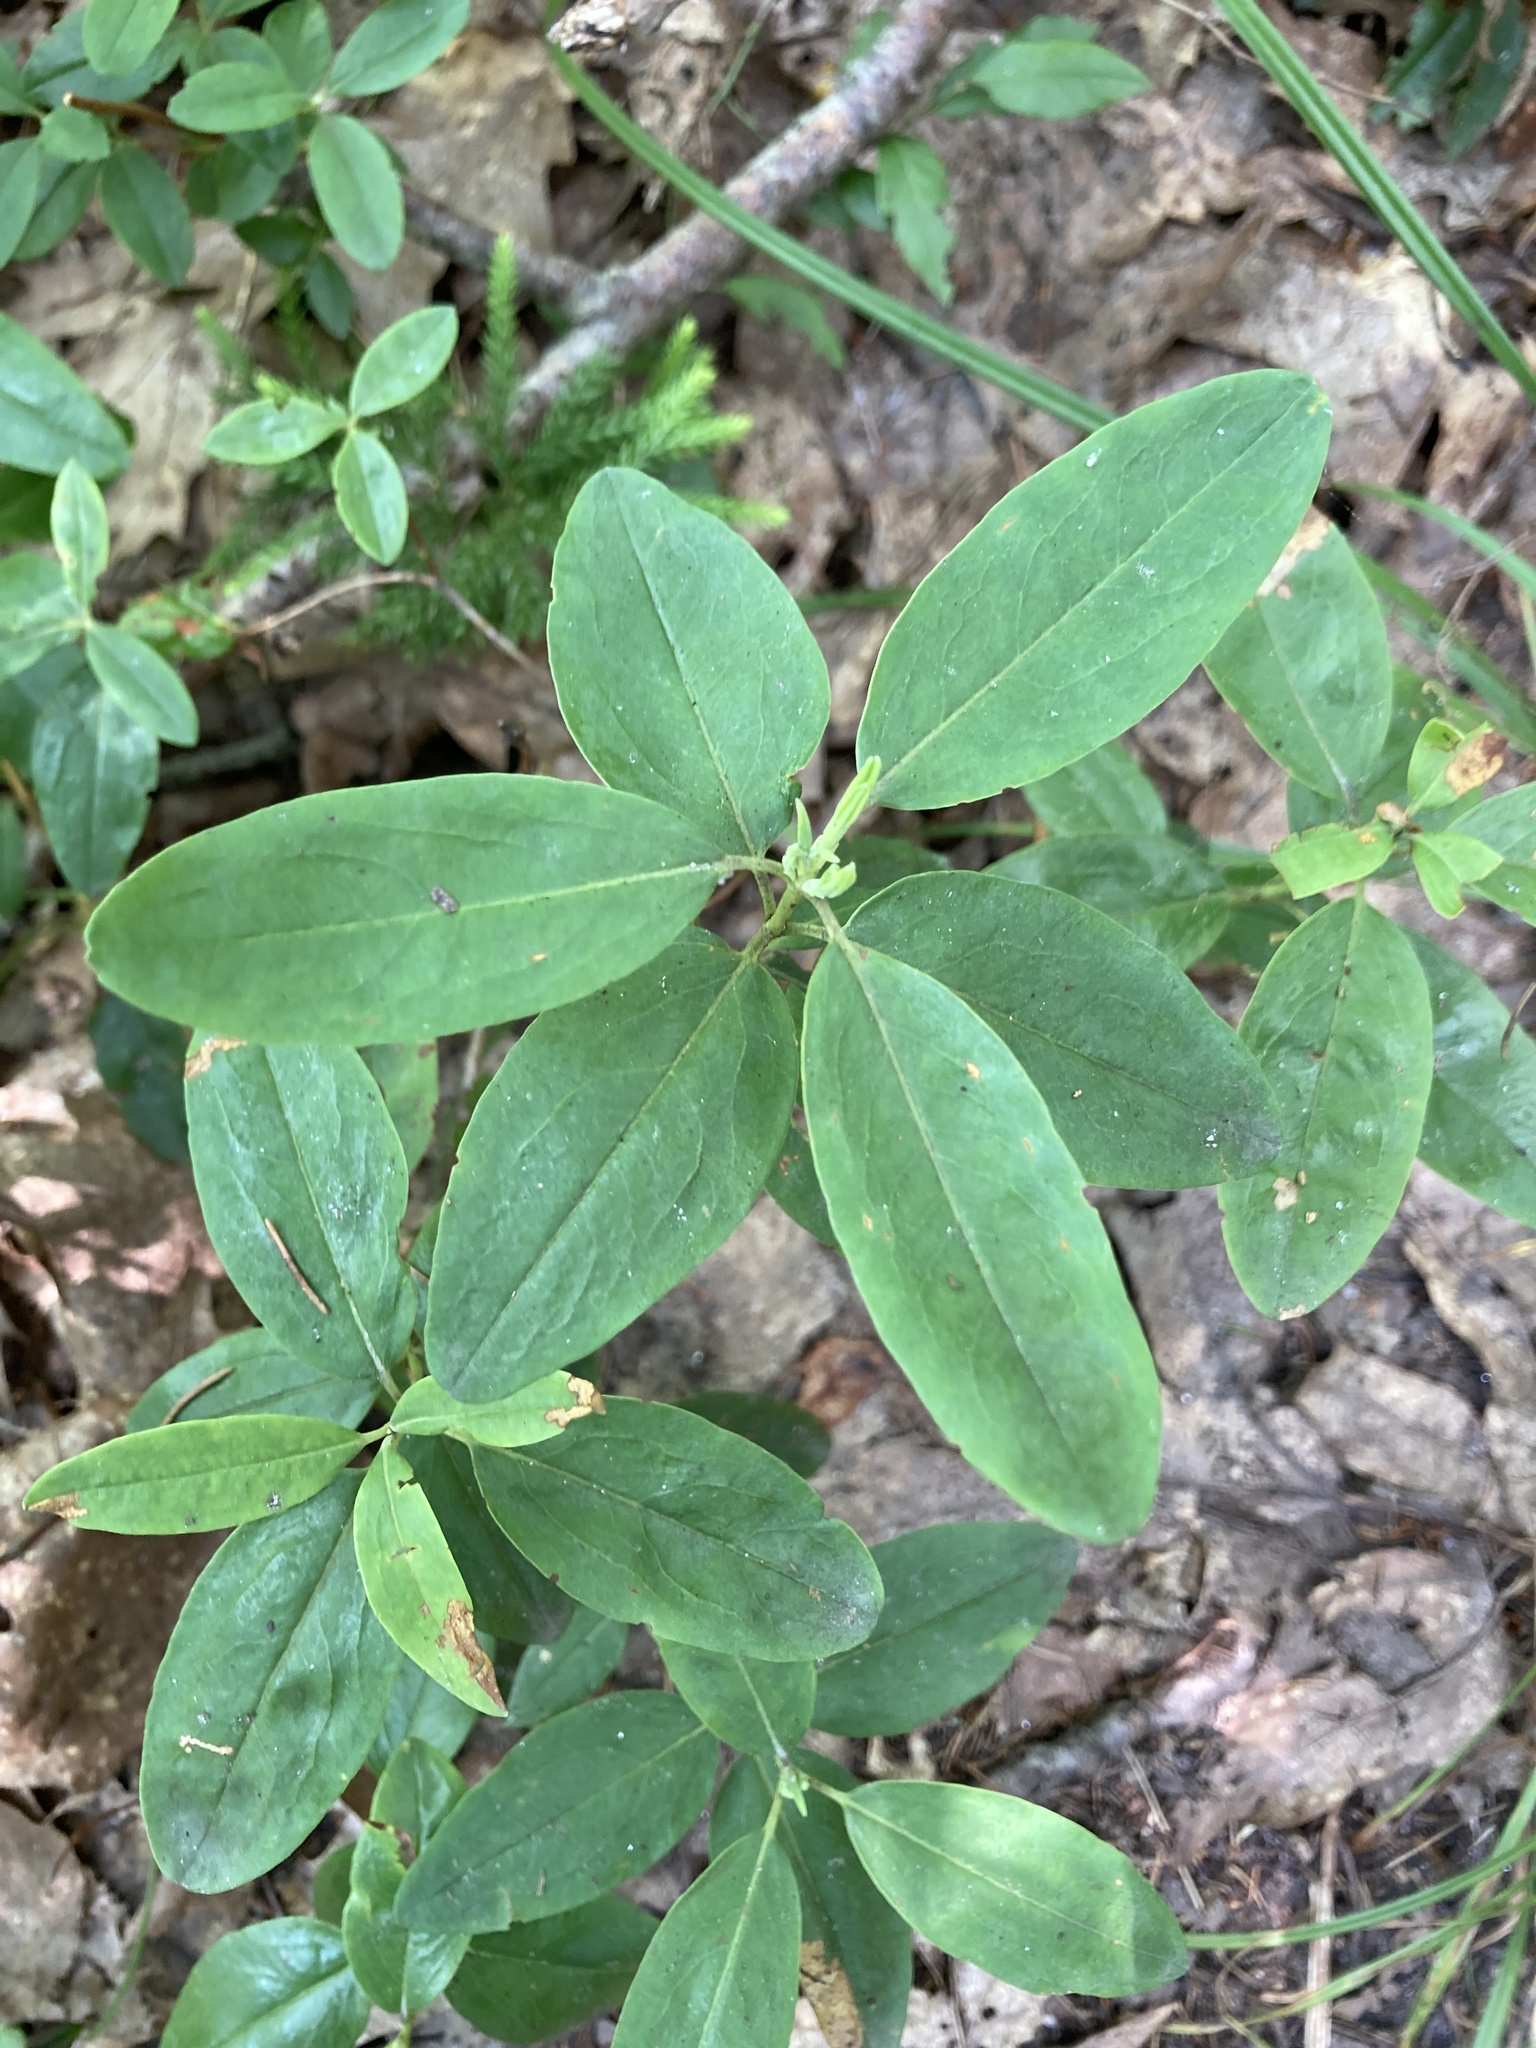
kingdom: Plantae
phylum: Tracheophyta
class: Magnoliopsida
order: Ericales
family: Ericaceae
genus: Kalmia
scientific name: Kalmia angustifolia
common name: Sheep-laurel
